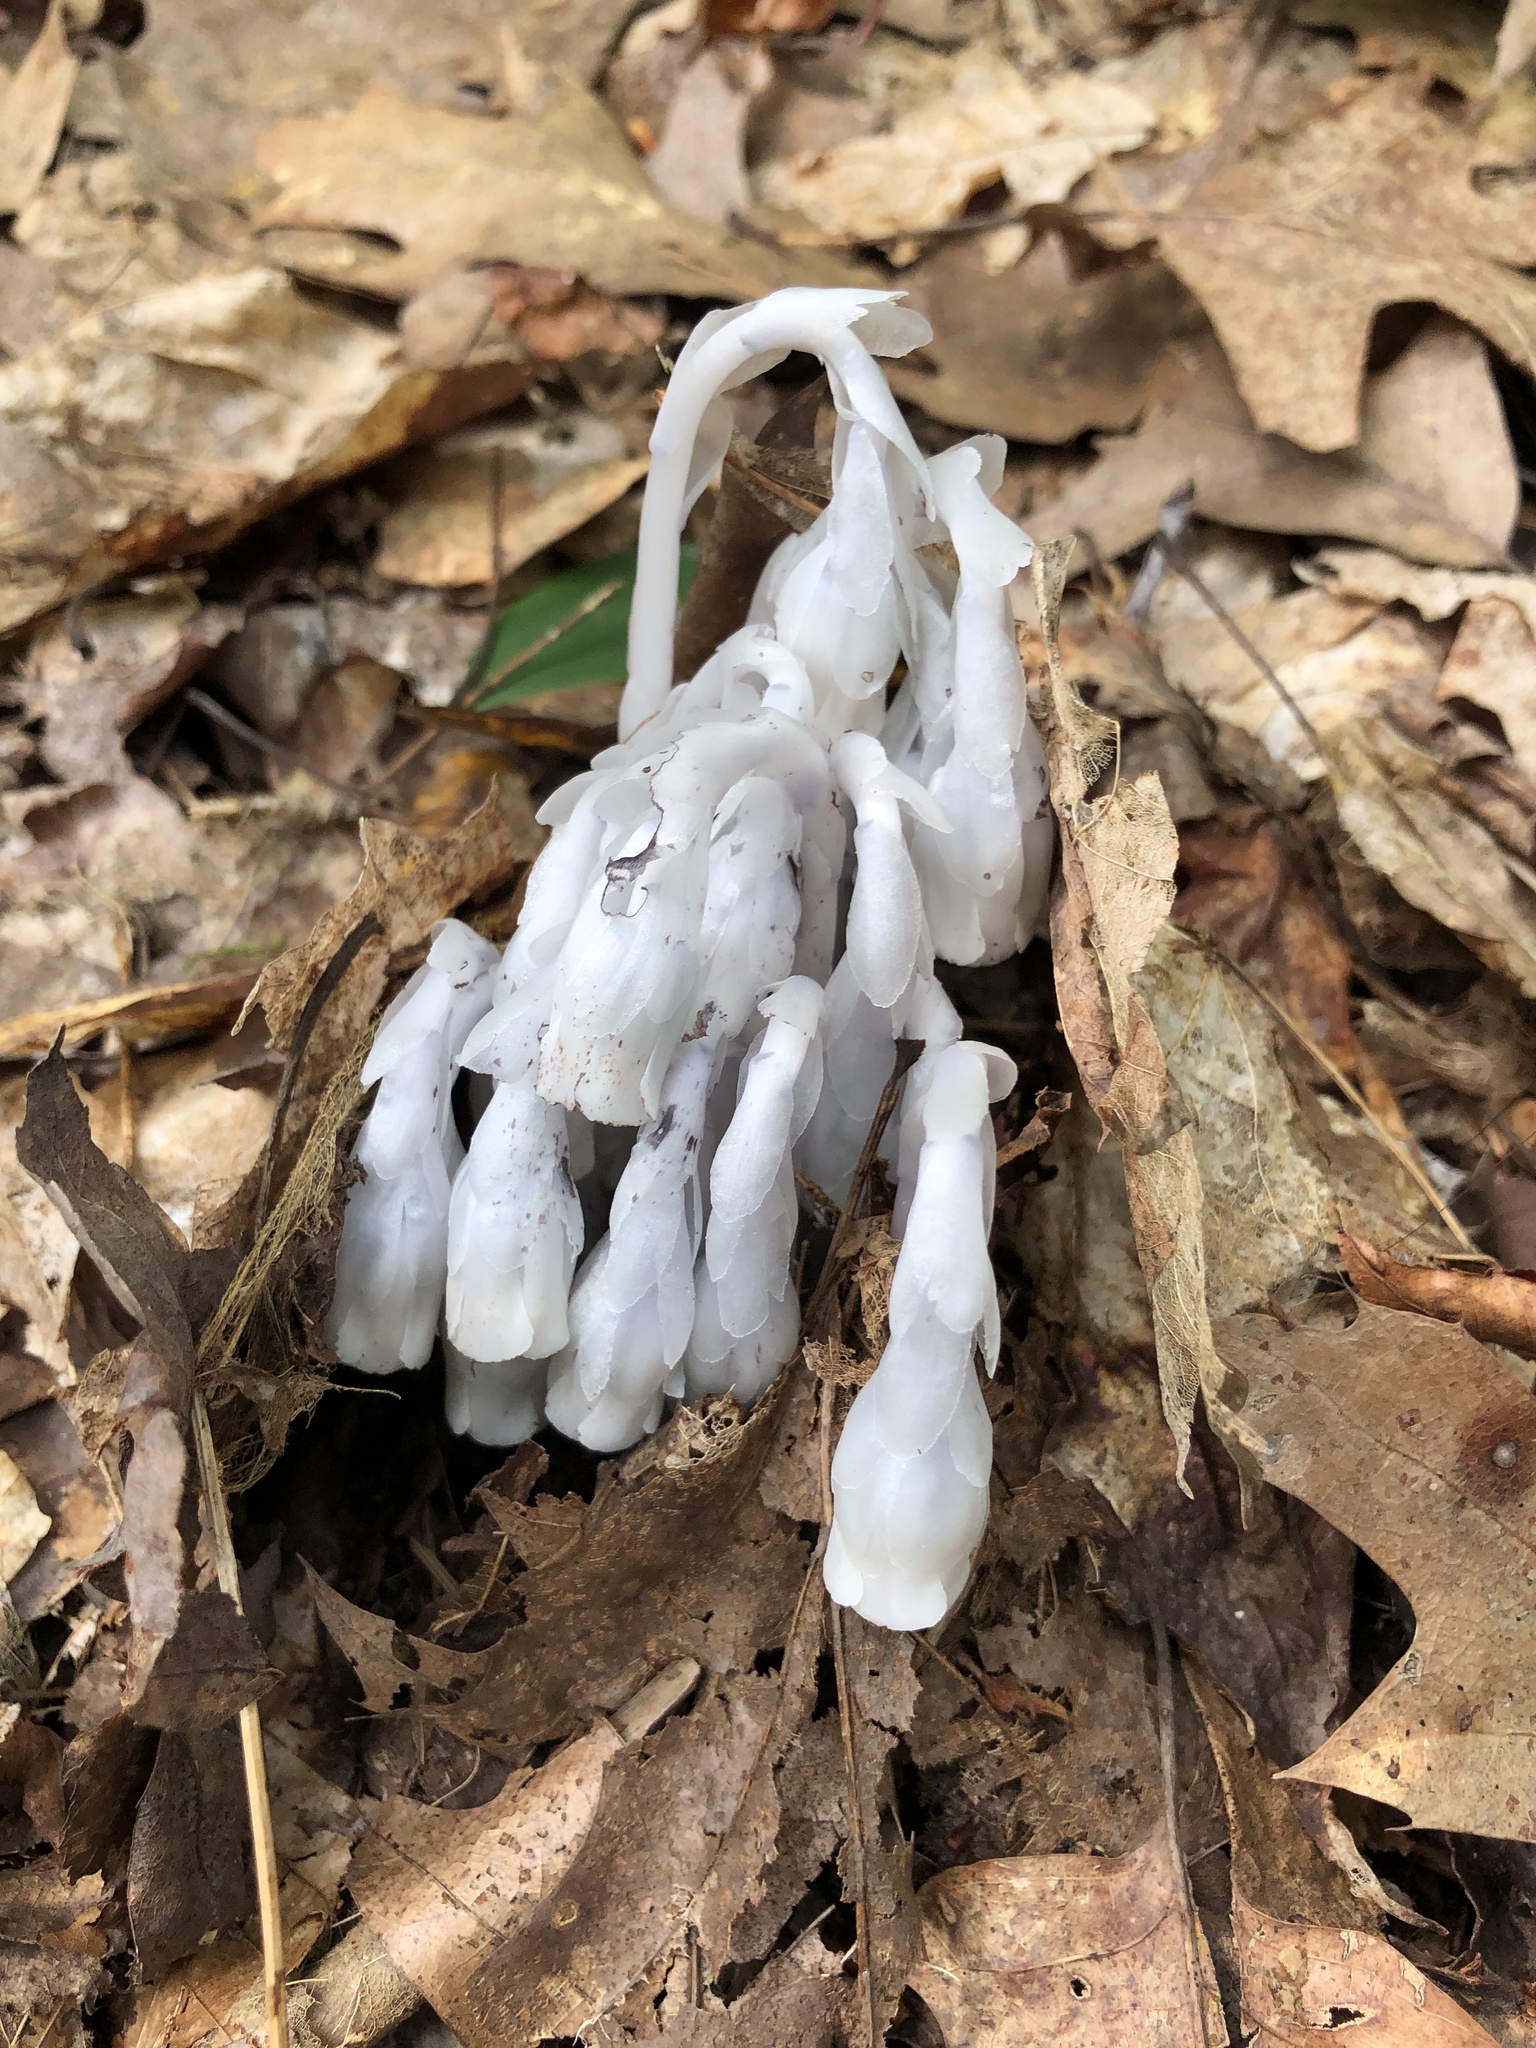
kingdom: Plantae
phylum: Tracheophyta
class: Magnoliopsida
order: Ericales
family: Ericaceae
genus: Monotropa
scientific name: Monotropa uniflora
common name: Convulsion root
